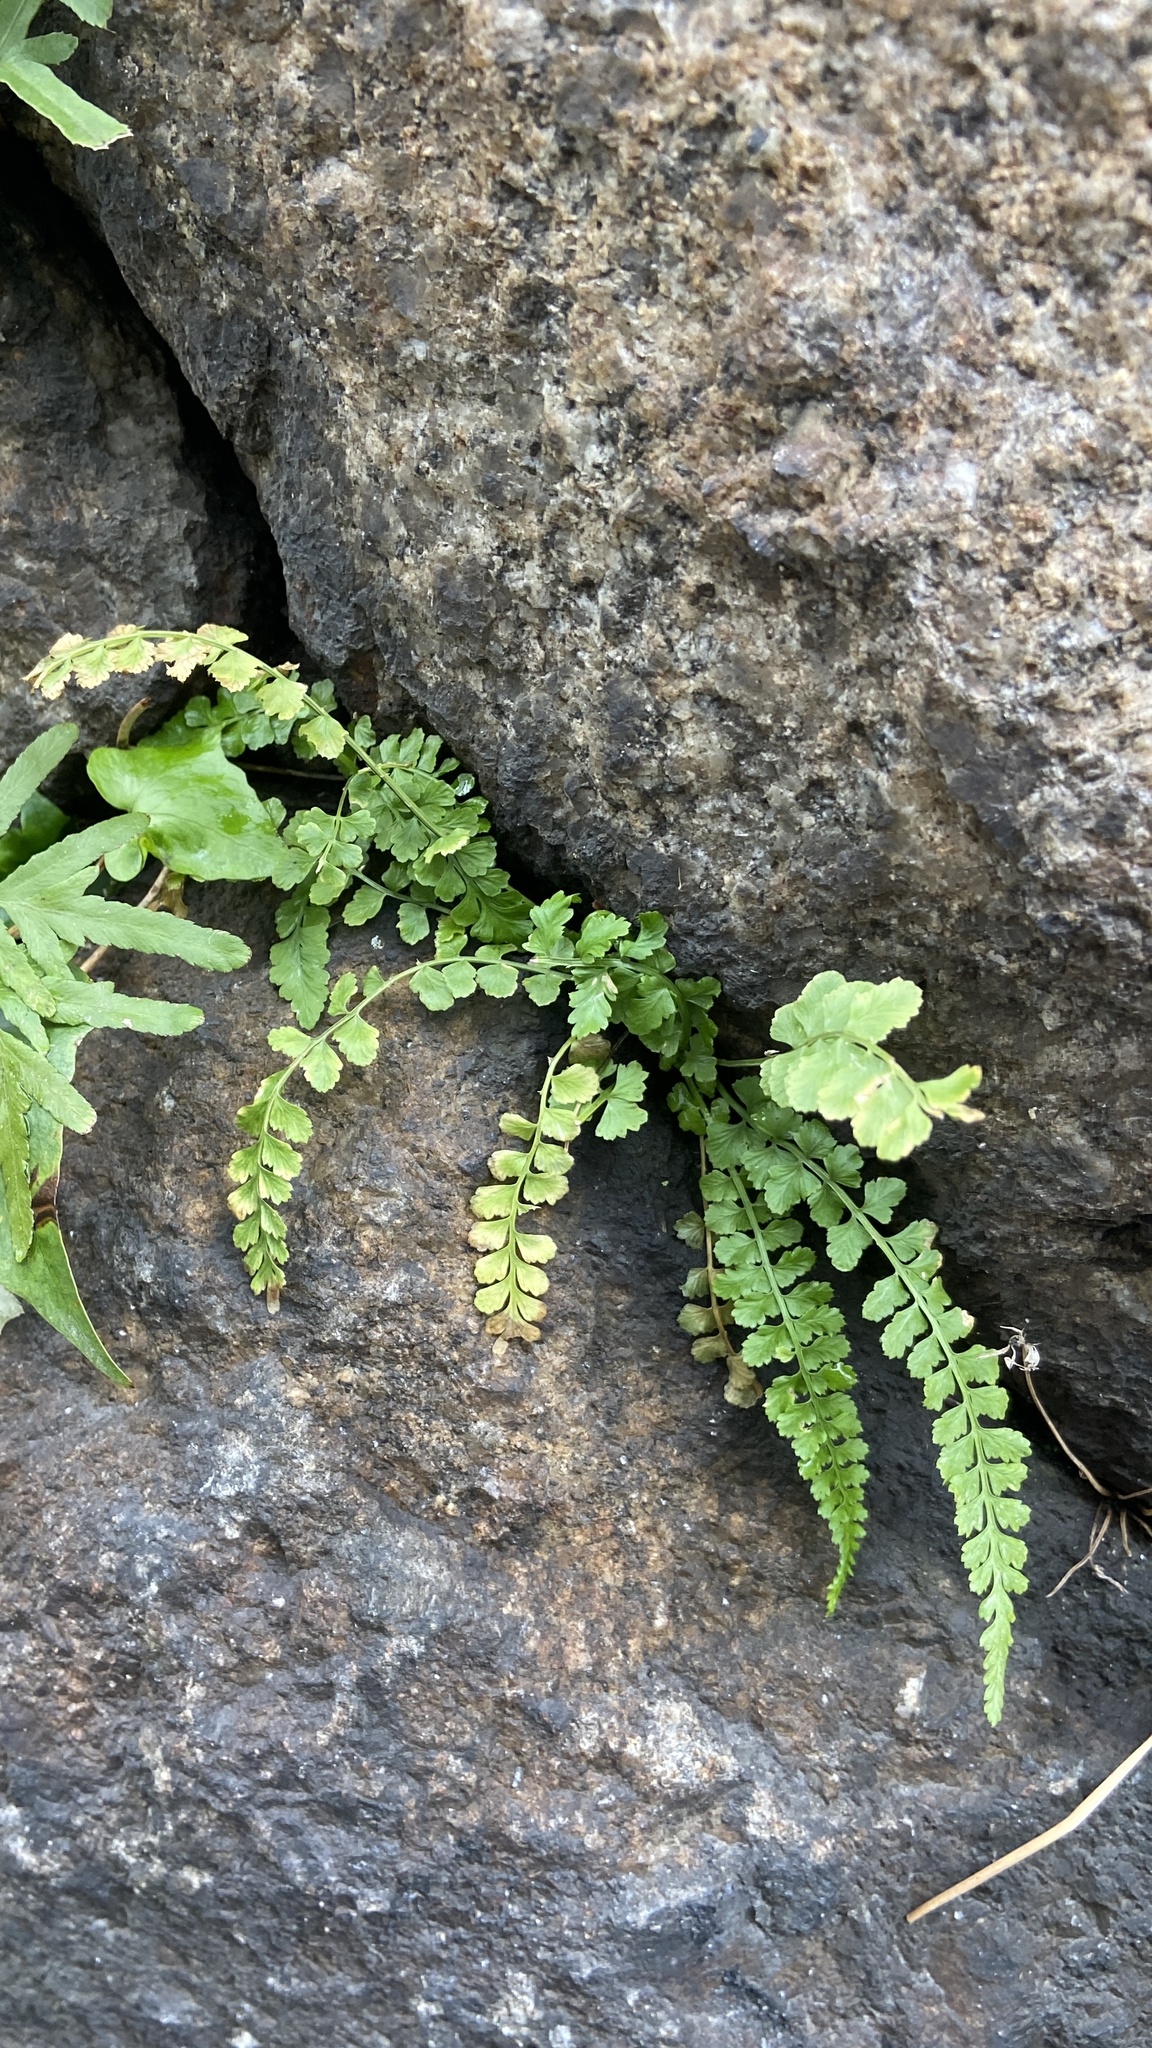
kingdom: Plantae
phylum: Tracheophyta
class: Polypodiopsida
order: Polypodiales
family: Aspleniaceae
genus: Asplenium
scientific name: Asplenium incisum
